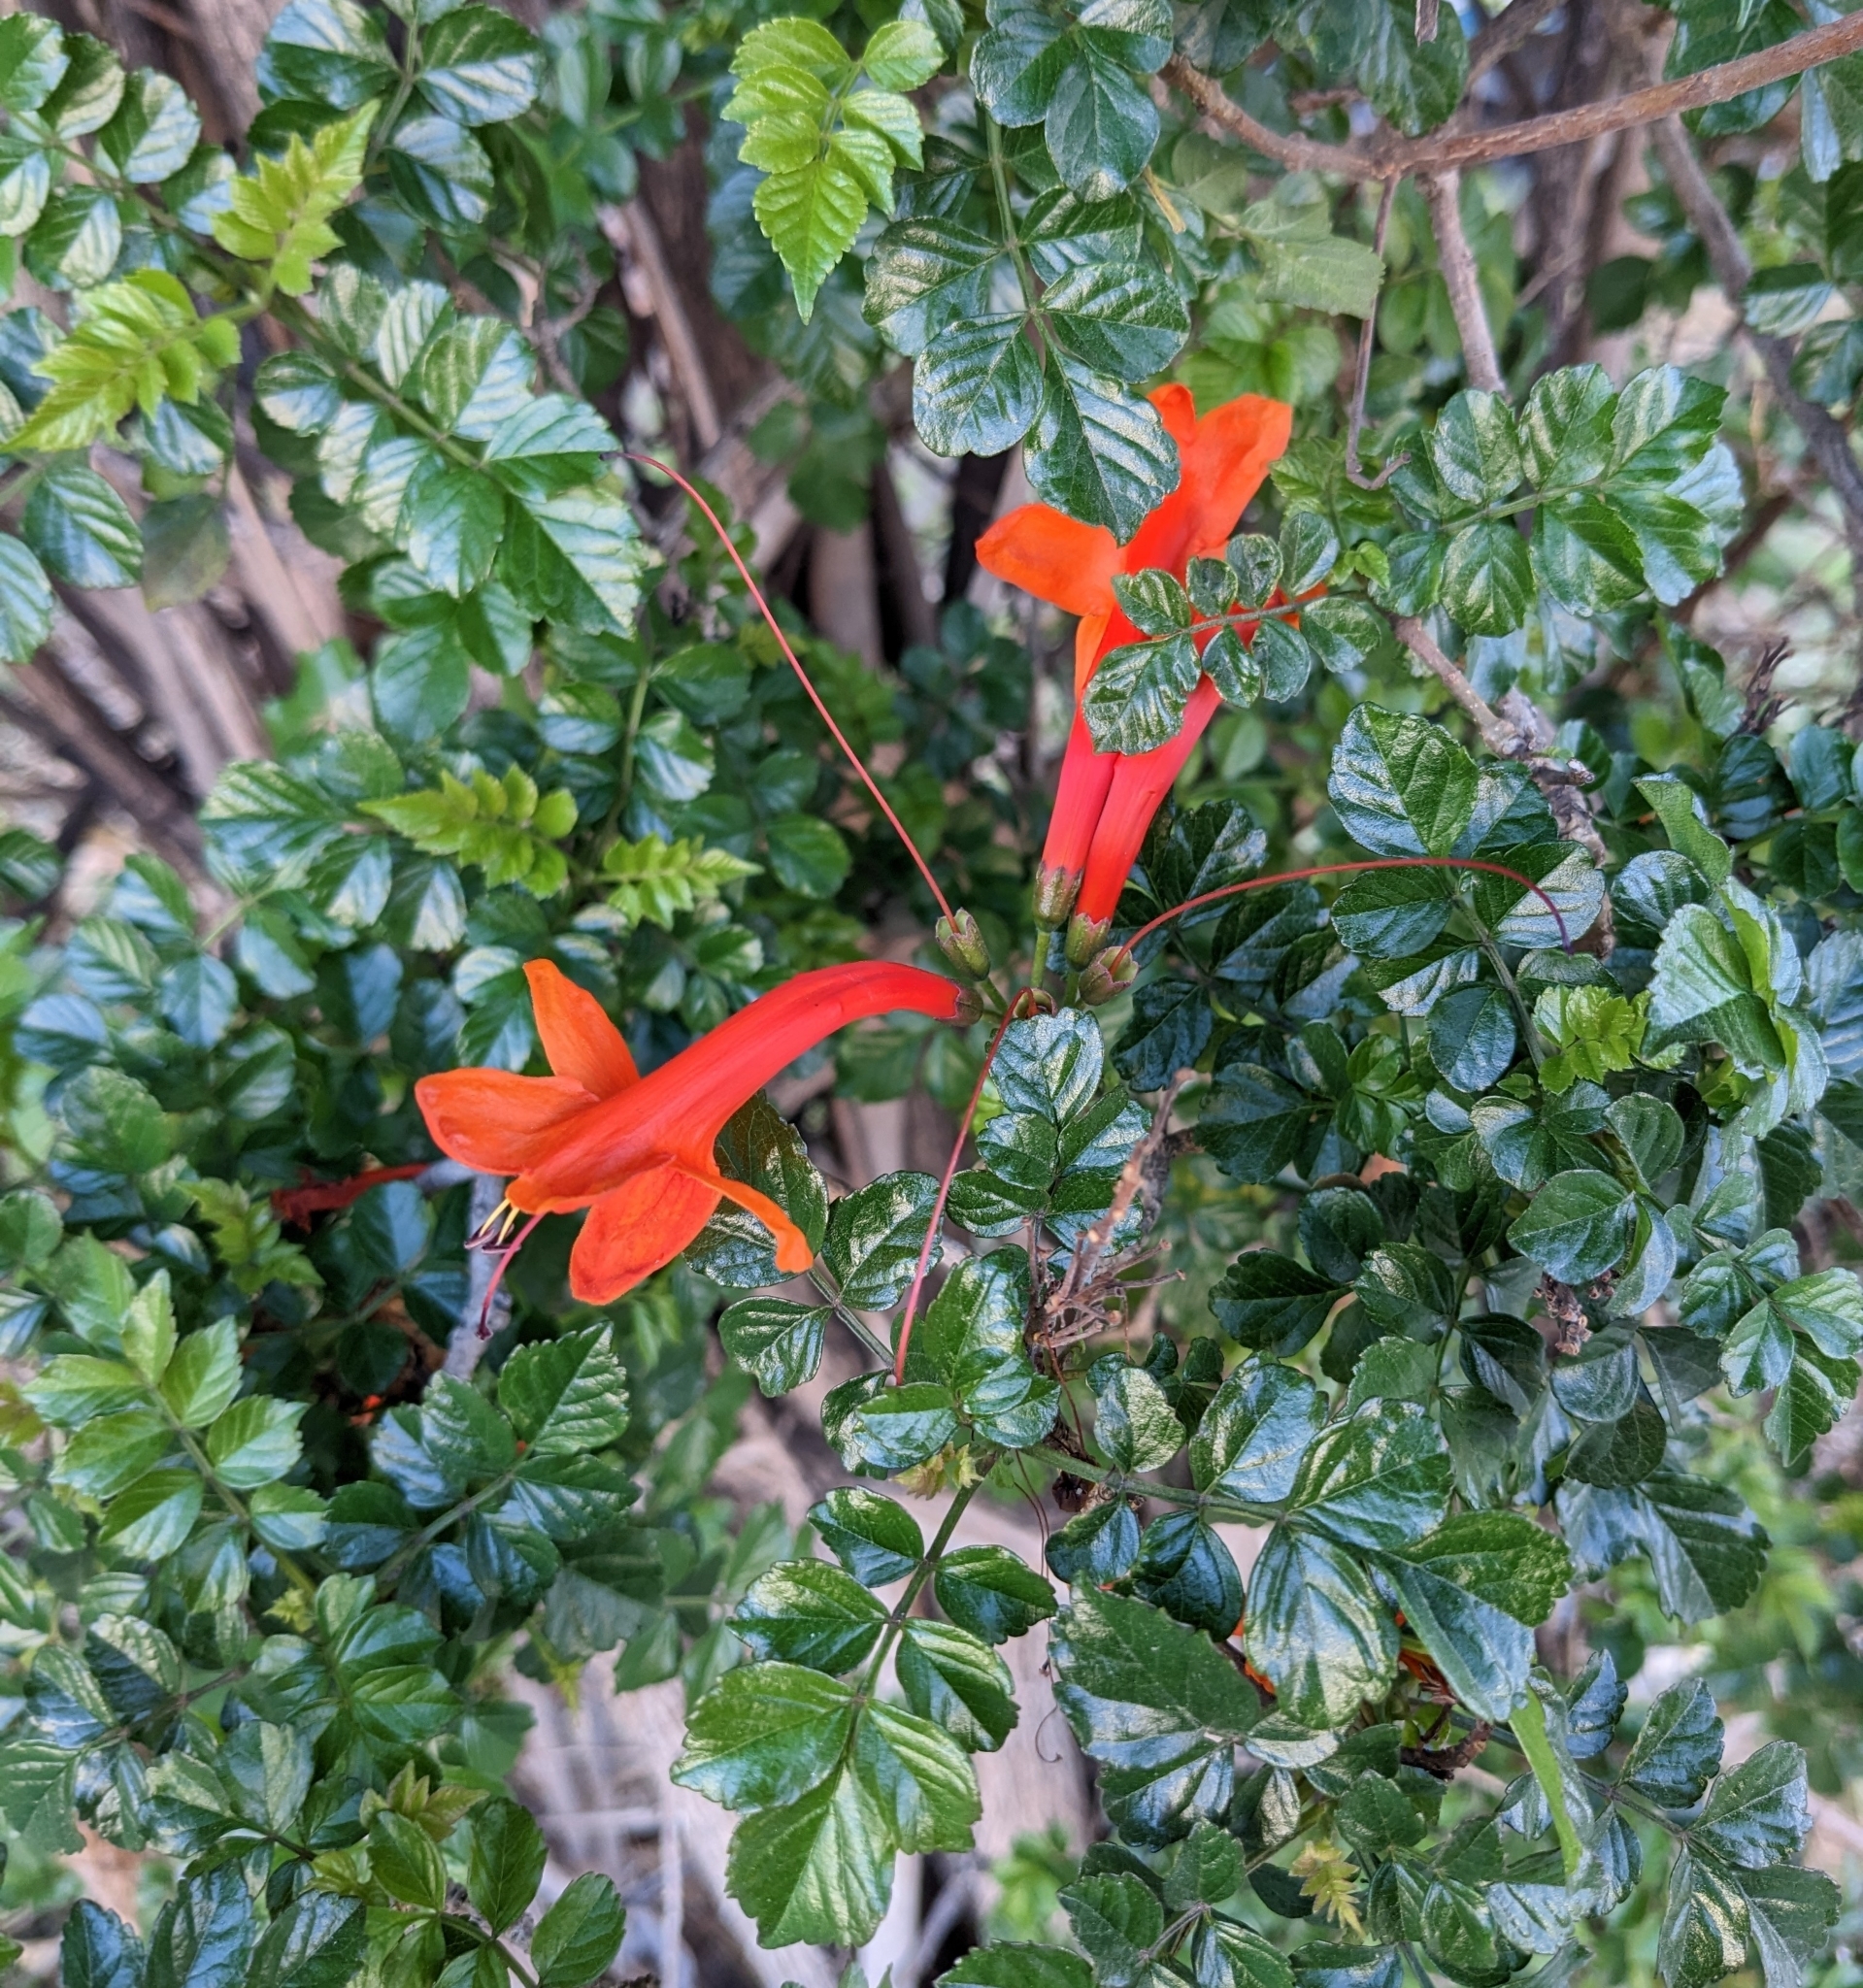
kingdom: Plantae
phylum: Tracheophyta
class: Magnoliopsida
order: Lamiales
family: Bignoniaceae
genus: Tecomaria
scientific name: Tecomaria capensis
